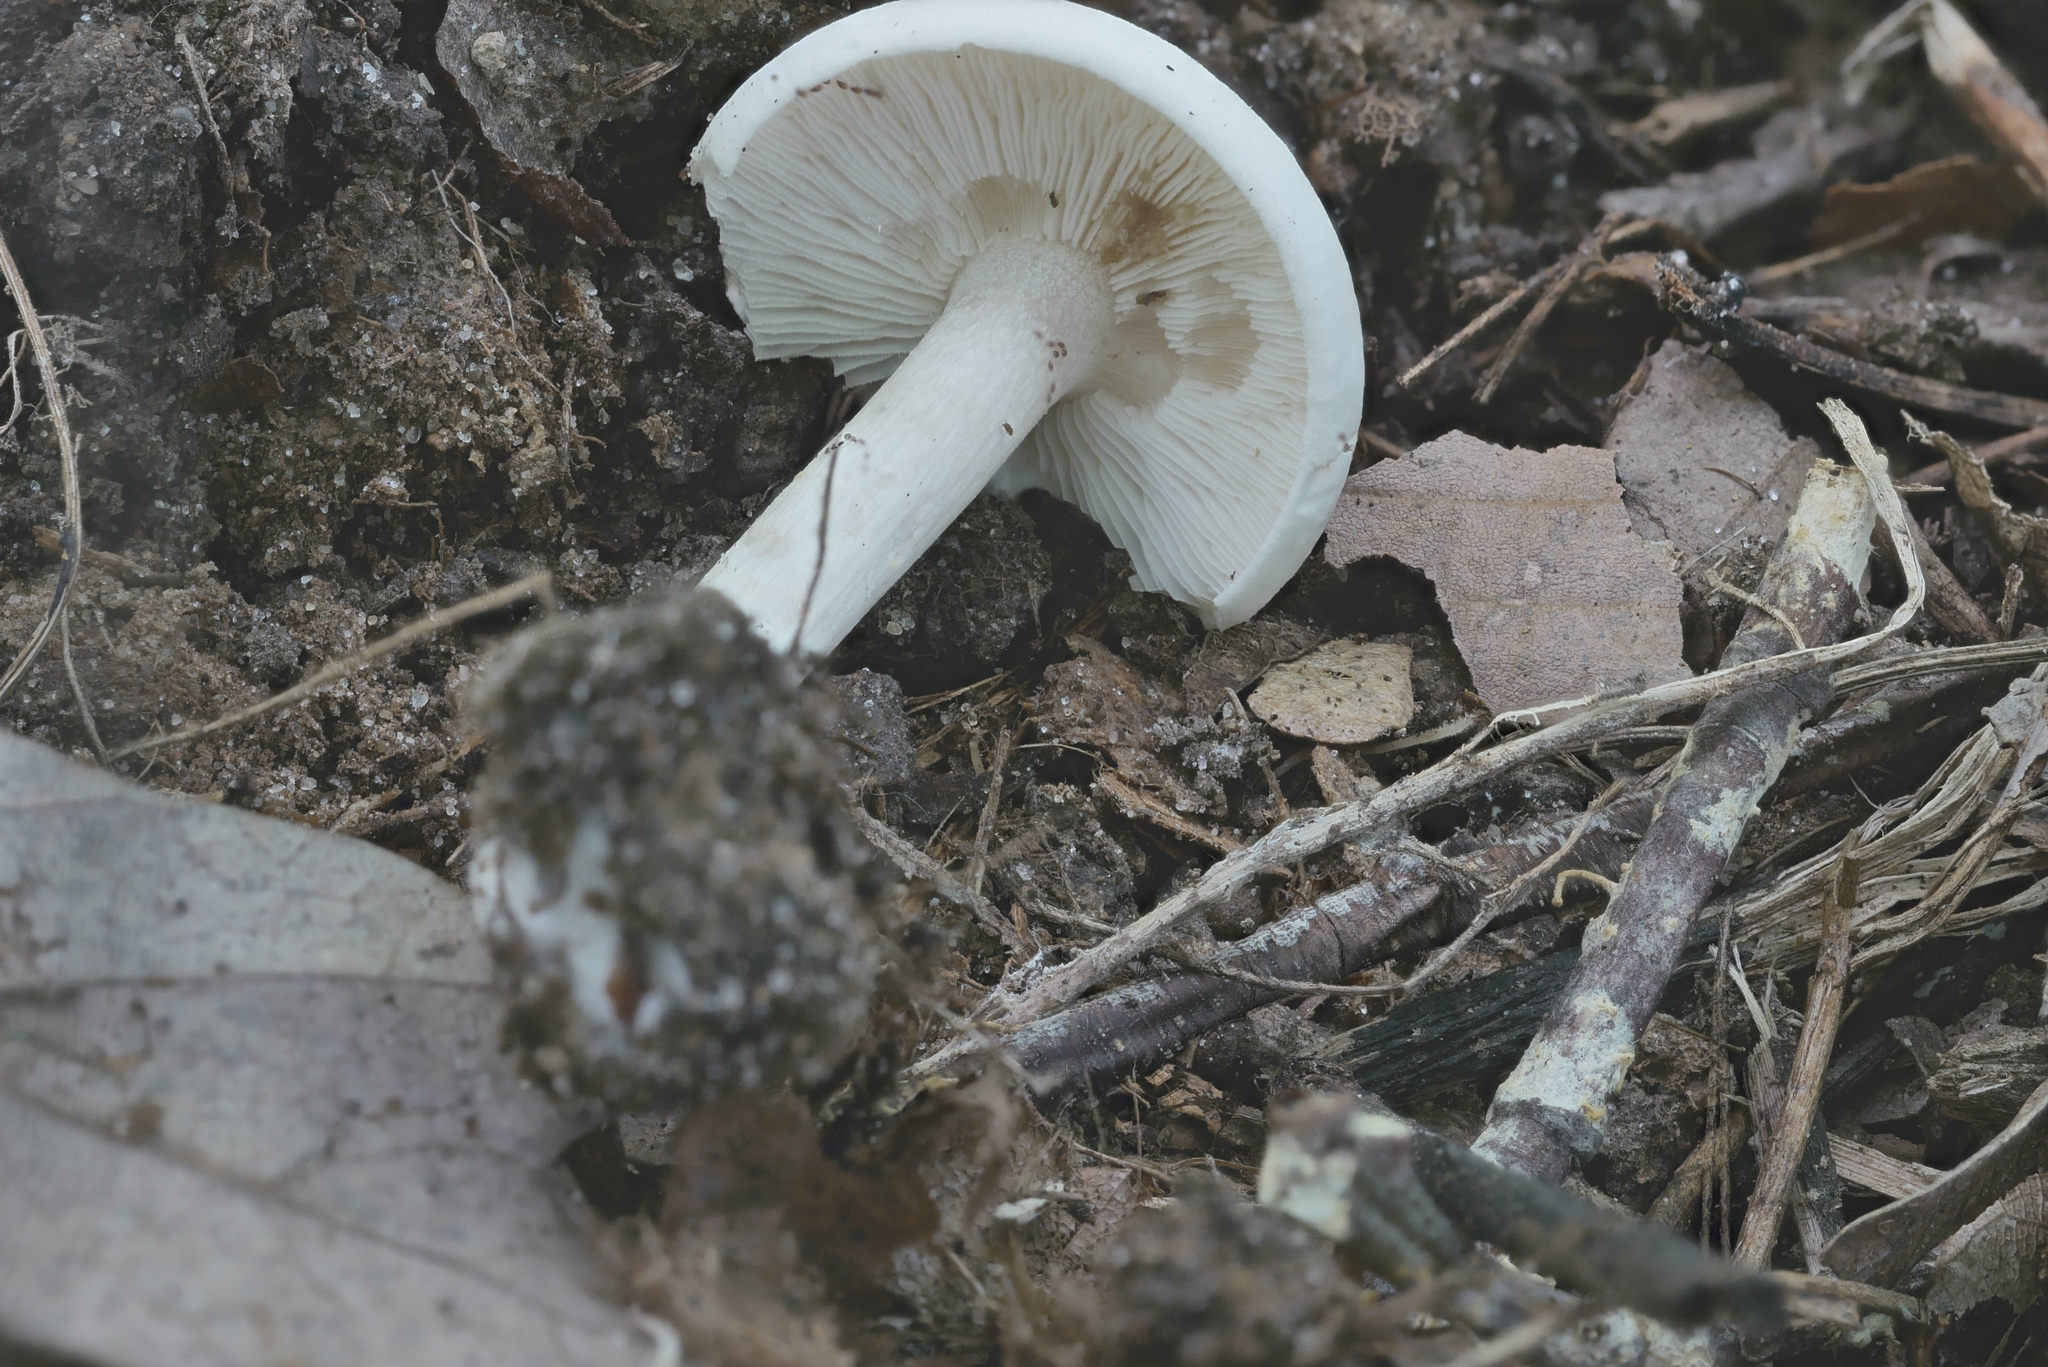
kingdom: Fungi
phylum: Basidiomycota
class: Agaricomycetes
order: Agaricales
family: Tricholomataceae
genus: Collybia
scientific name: Collybia alboflavida
